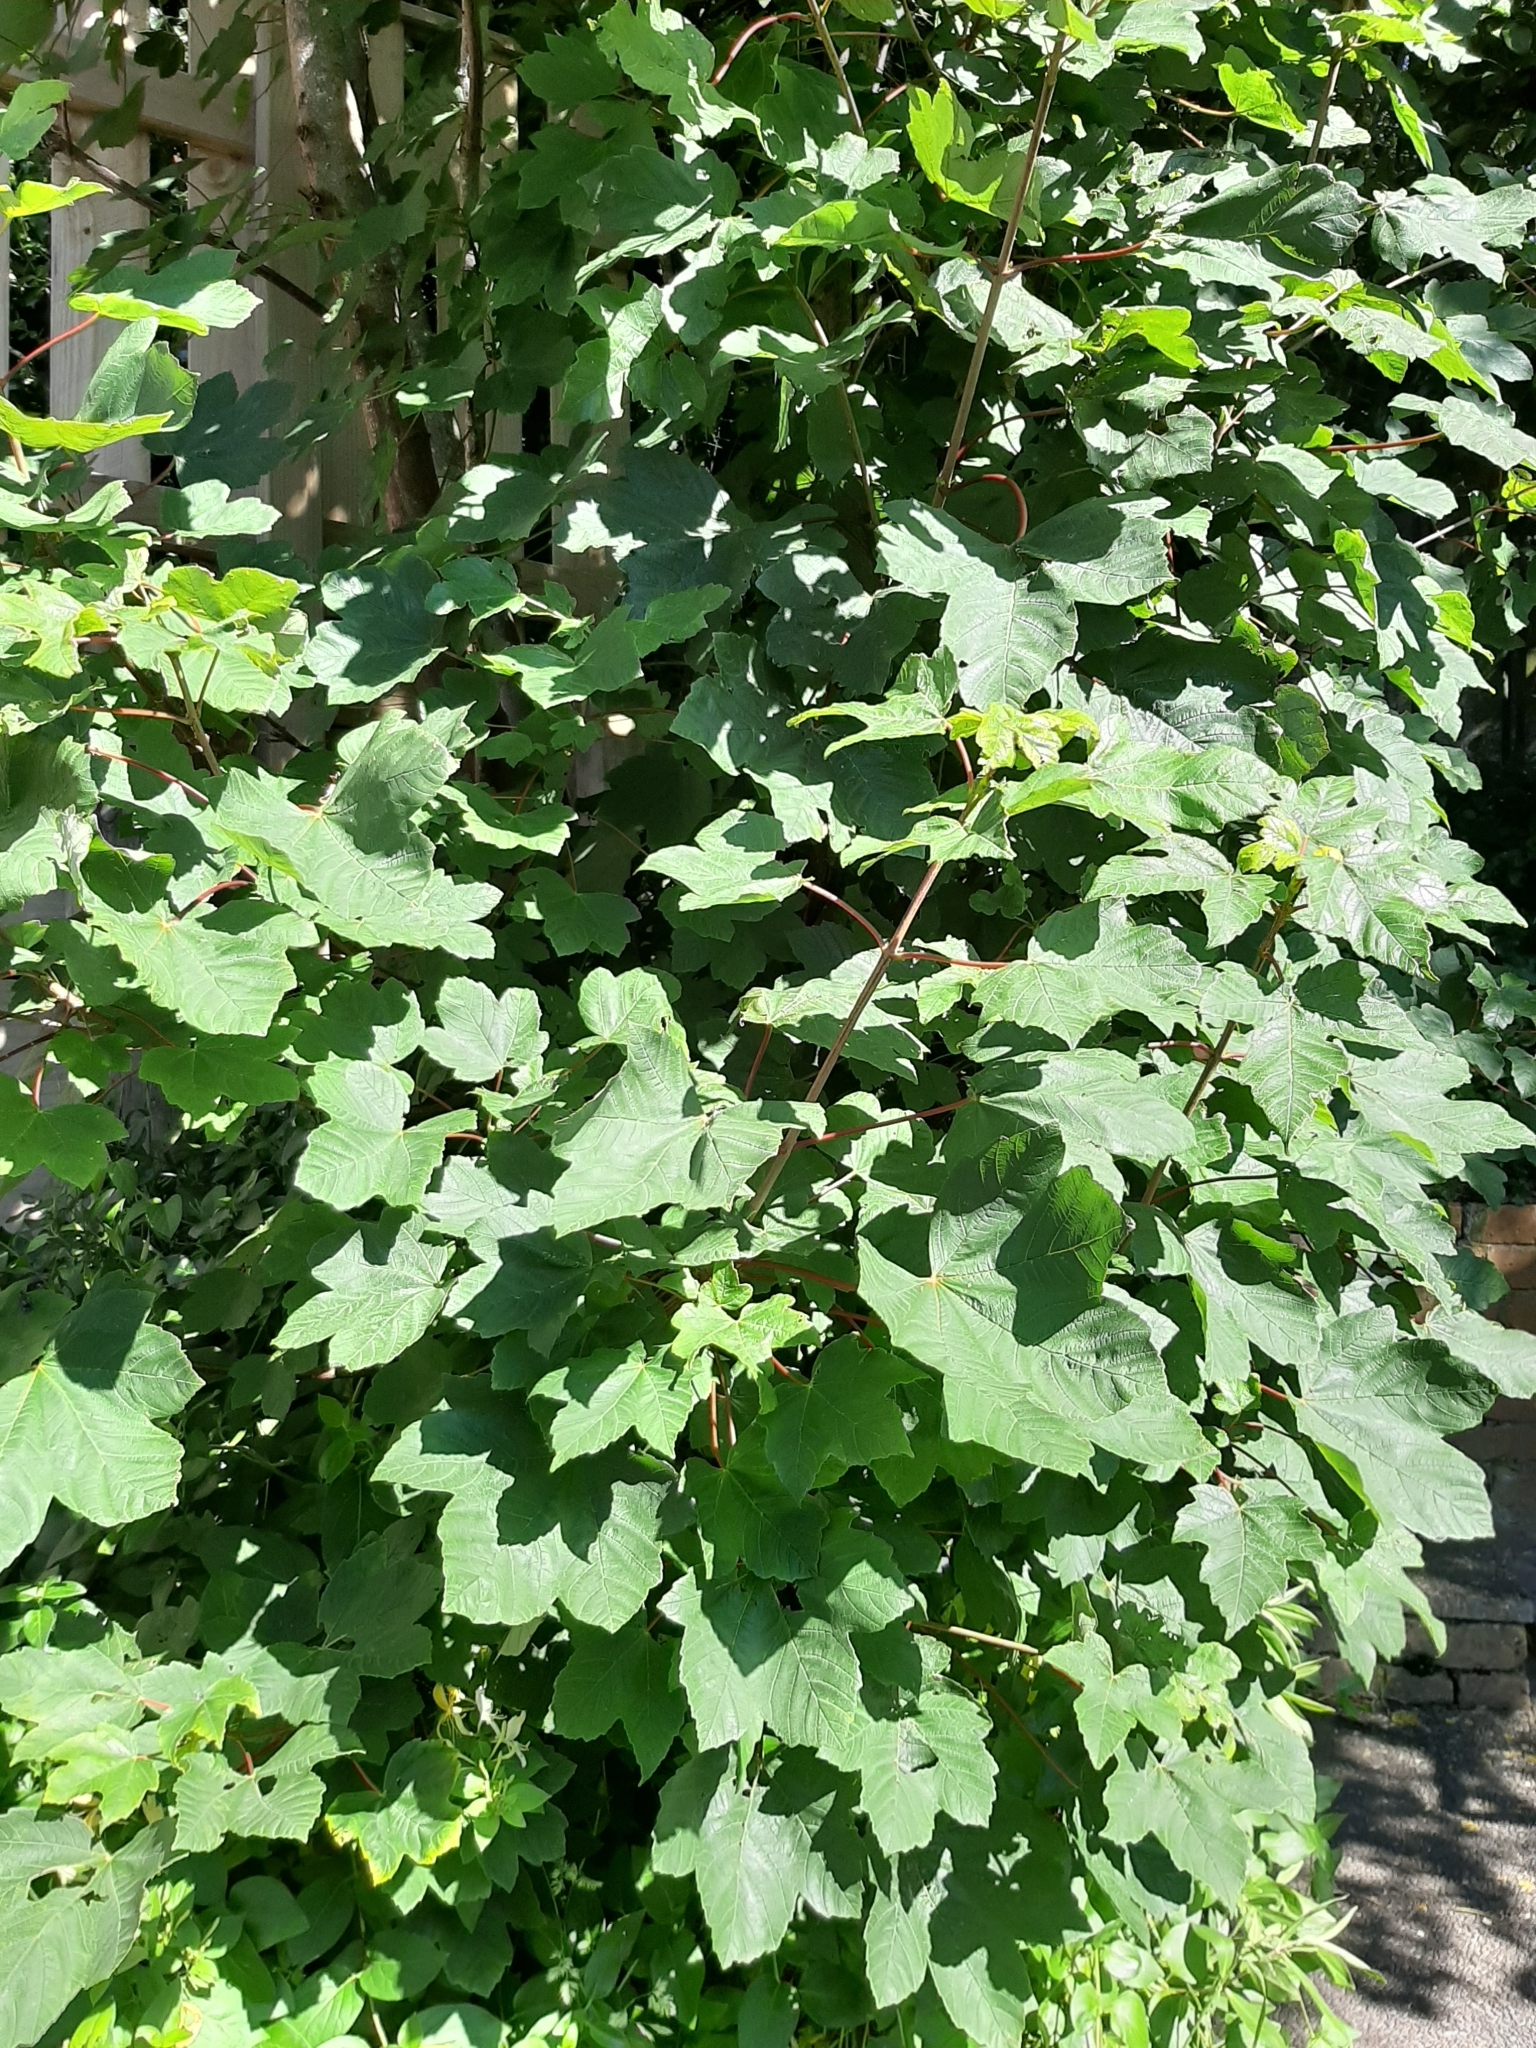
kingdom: Plantae
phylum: Tracheophyta
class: Magnoliopsida
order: Sapindales
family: Sapindaceae
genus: Acer
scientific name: Acer pseudoplatanus
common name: Sycamore
